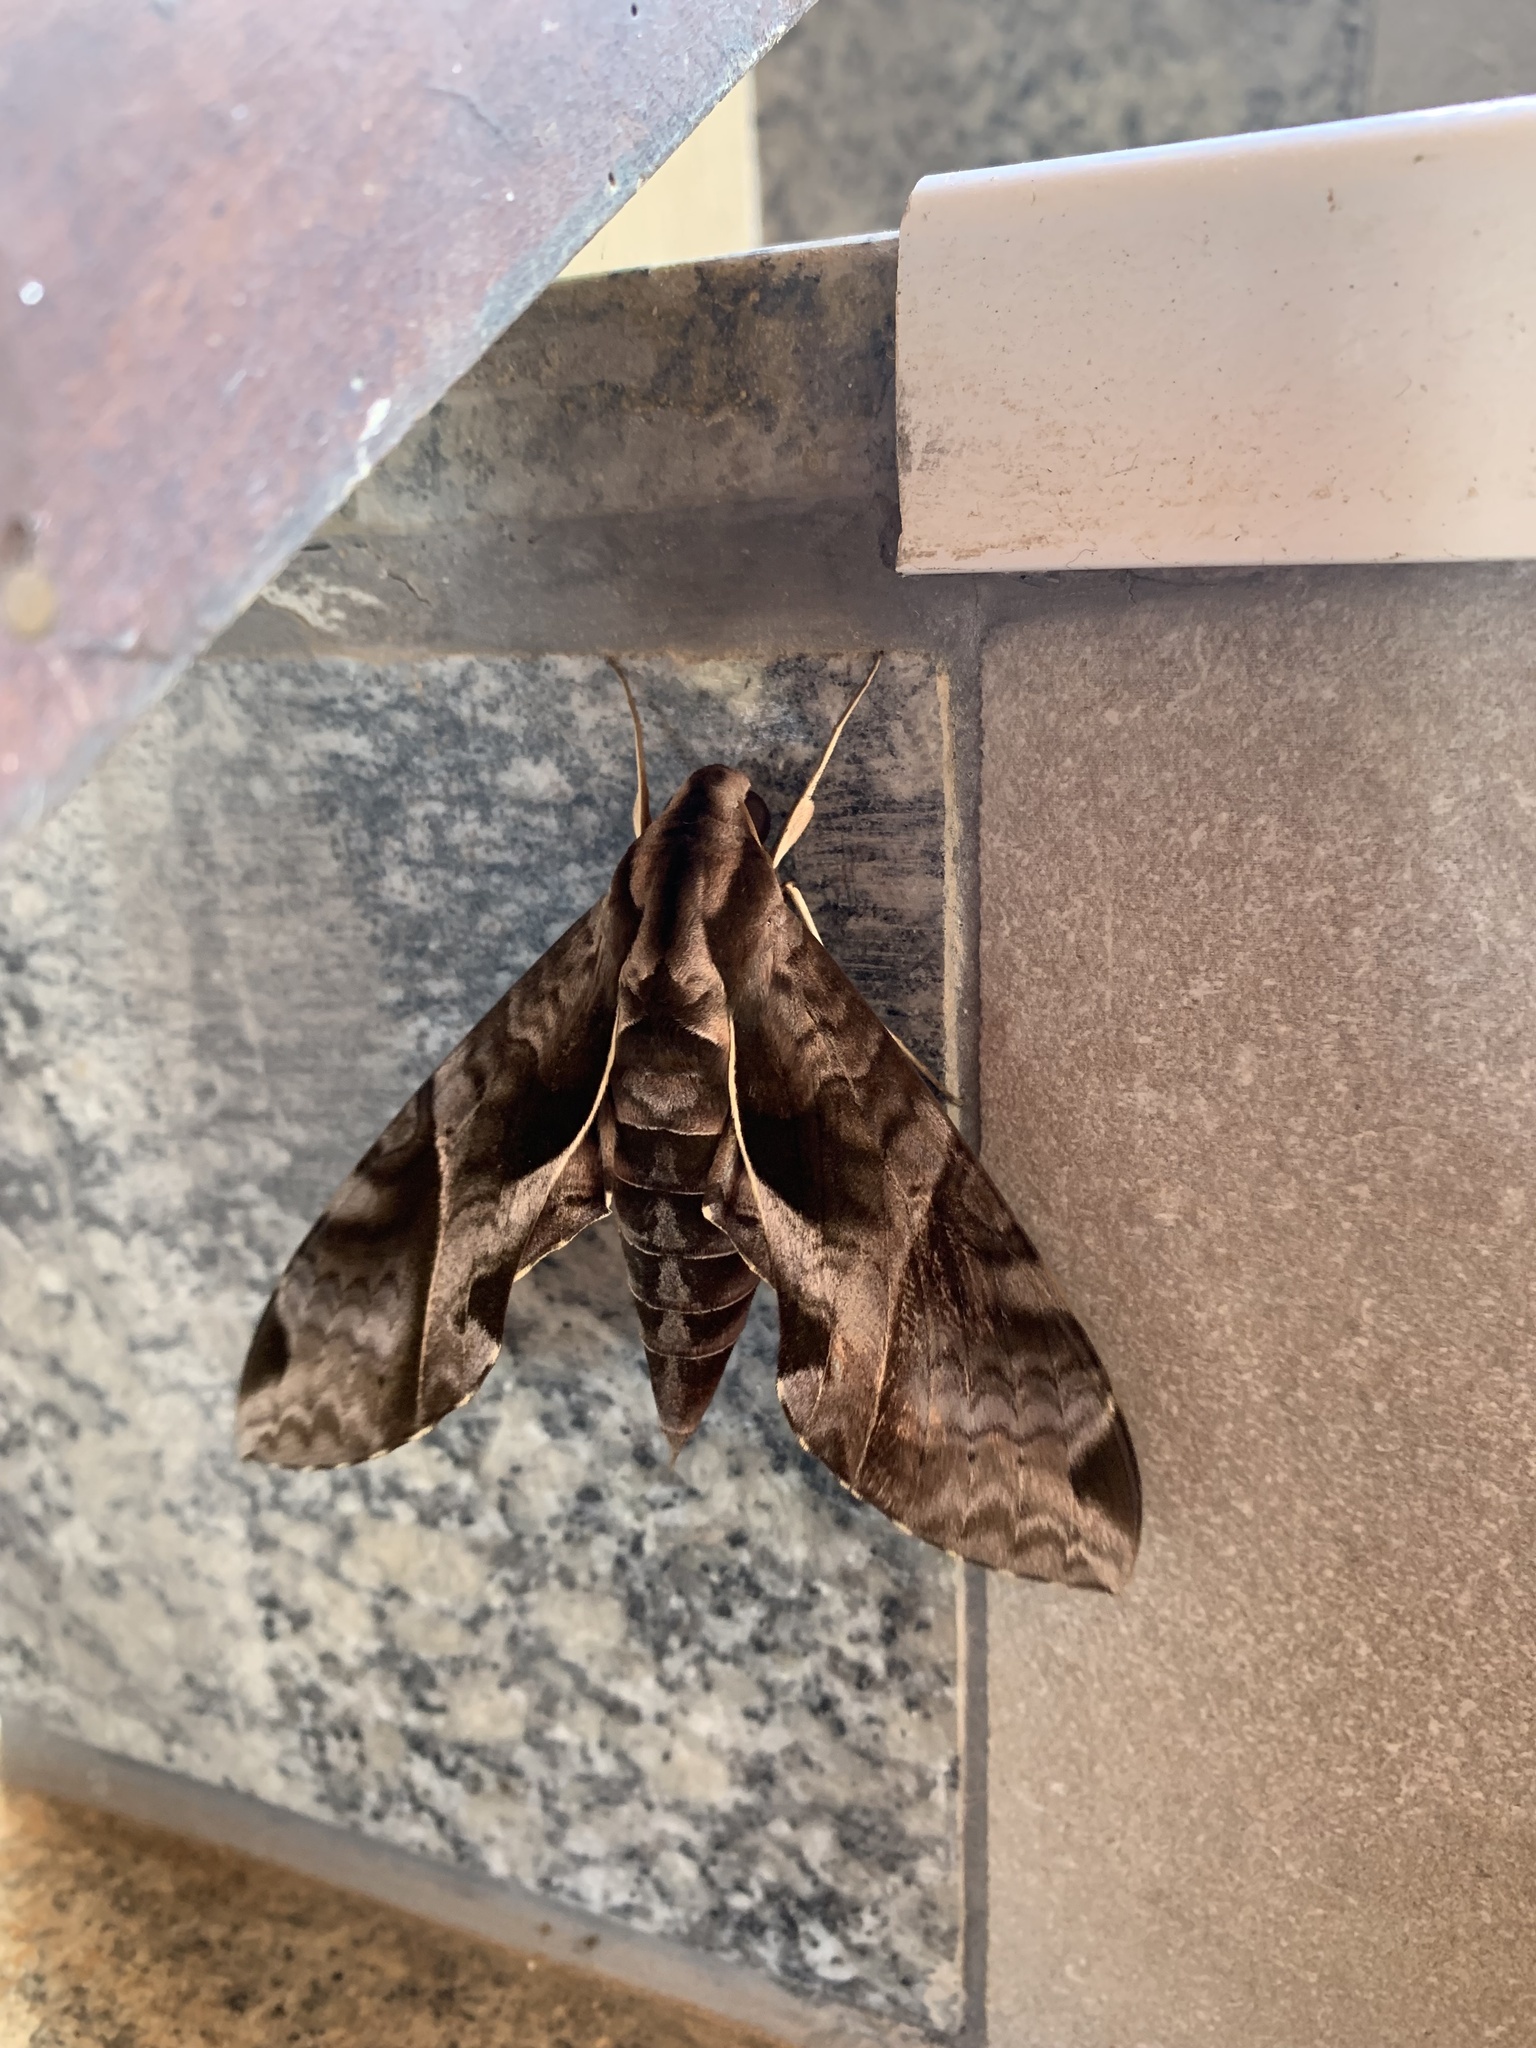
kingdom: Animalia
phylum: Arthropoda
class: Insecta
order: Lepidoptera
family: Sphingidae
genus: Eumorpha
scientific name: Eumorpha anchemolus
